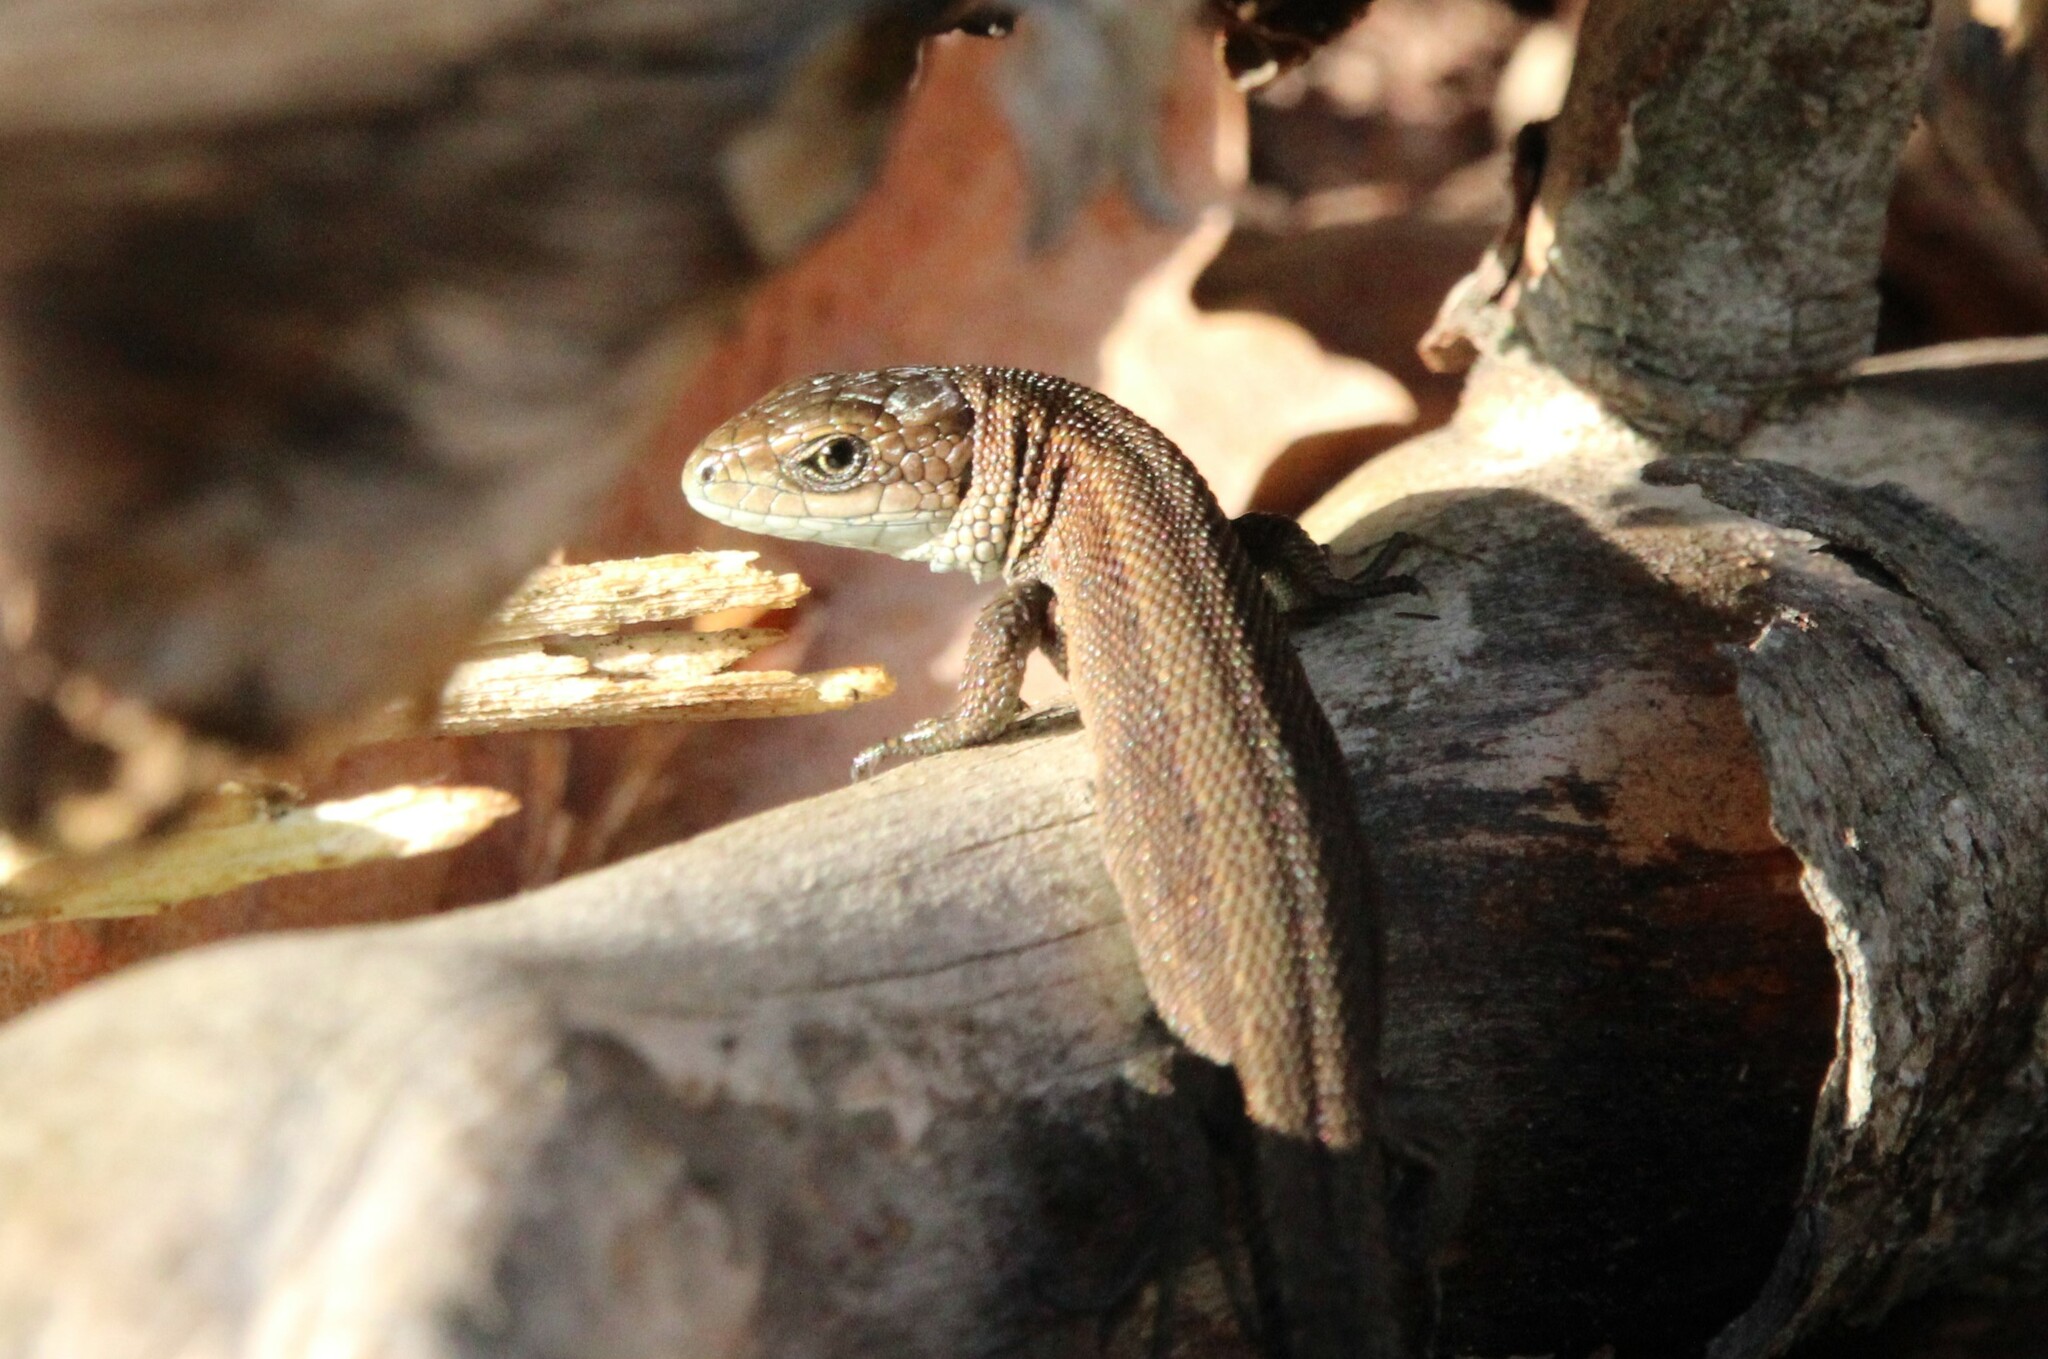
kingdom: Animalia
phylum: Chordata
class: Squamata
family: Lacertidae
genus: Zootoca
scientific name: Zootoca vivipara
